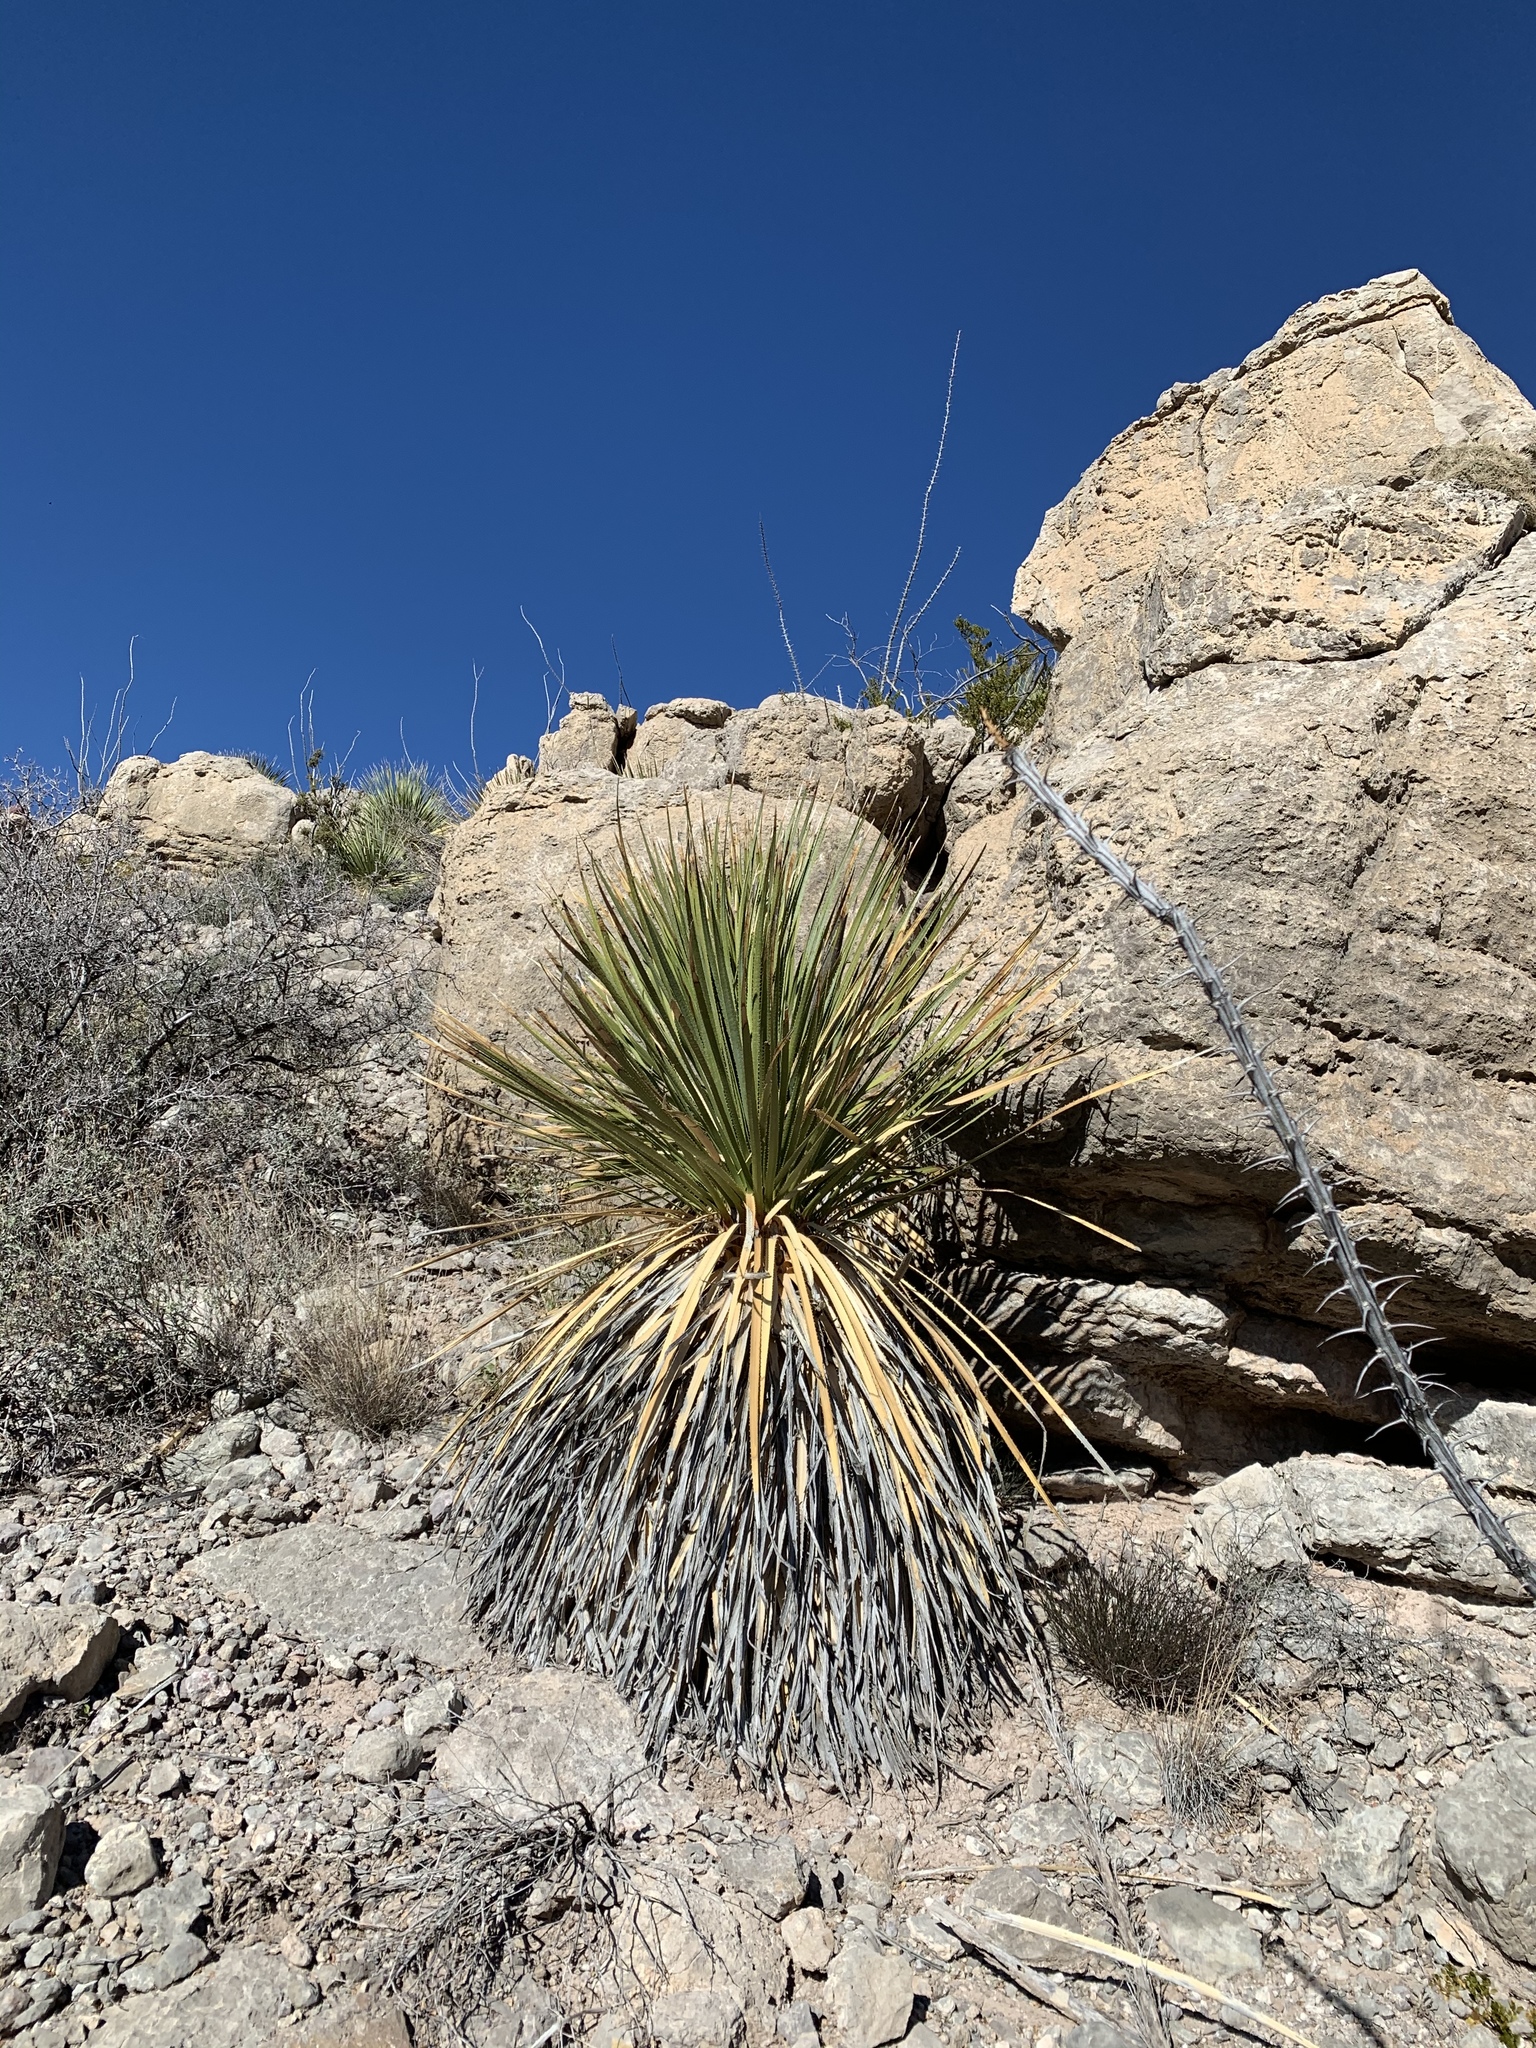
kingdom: Plantae
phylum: Tracheophyta
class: Liliopsida
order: Asparagales
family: Asparagaceae
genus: Dasylirion
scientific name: Dasylirion wheeleri
